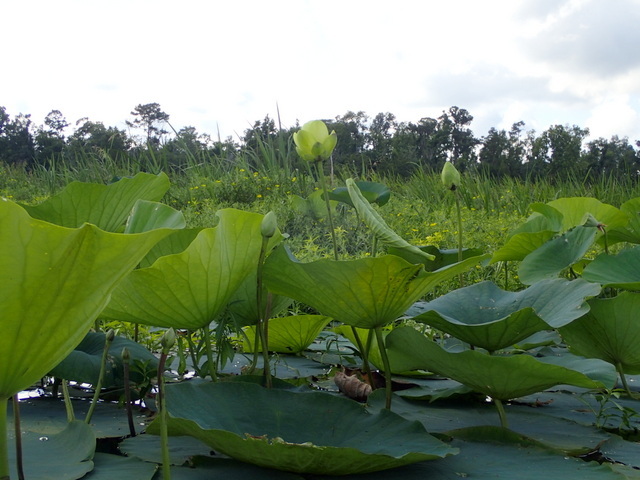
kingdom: Plantae
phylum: Tracheophyta
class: Magnoliopsida
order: Proteales
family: Nelumbonaceae
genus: Nelumbo
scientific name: Nelumbo lutea
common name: American lotus
